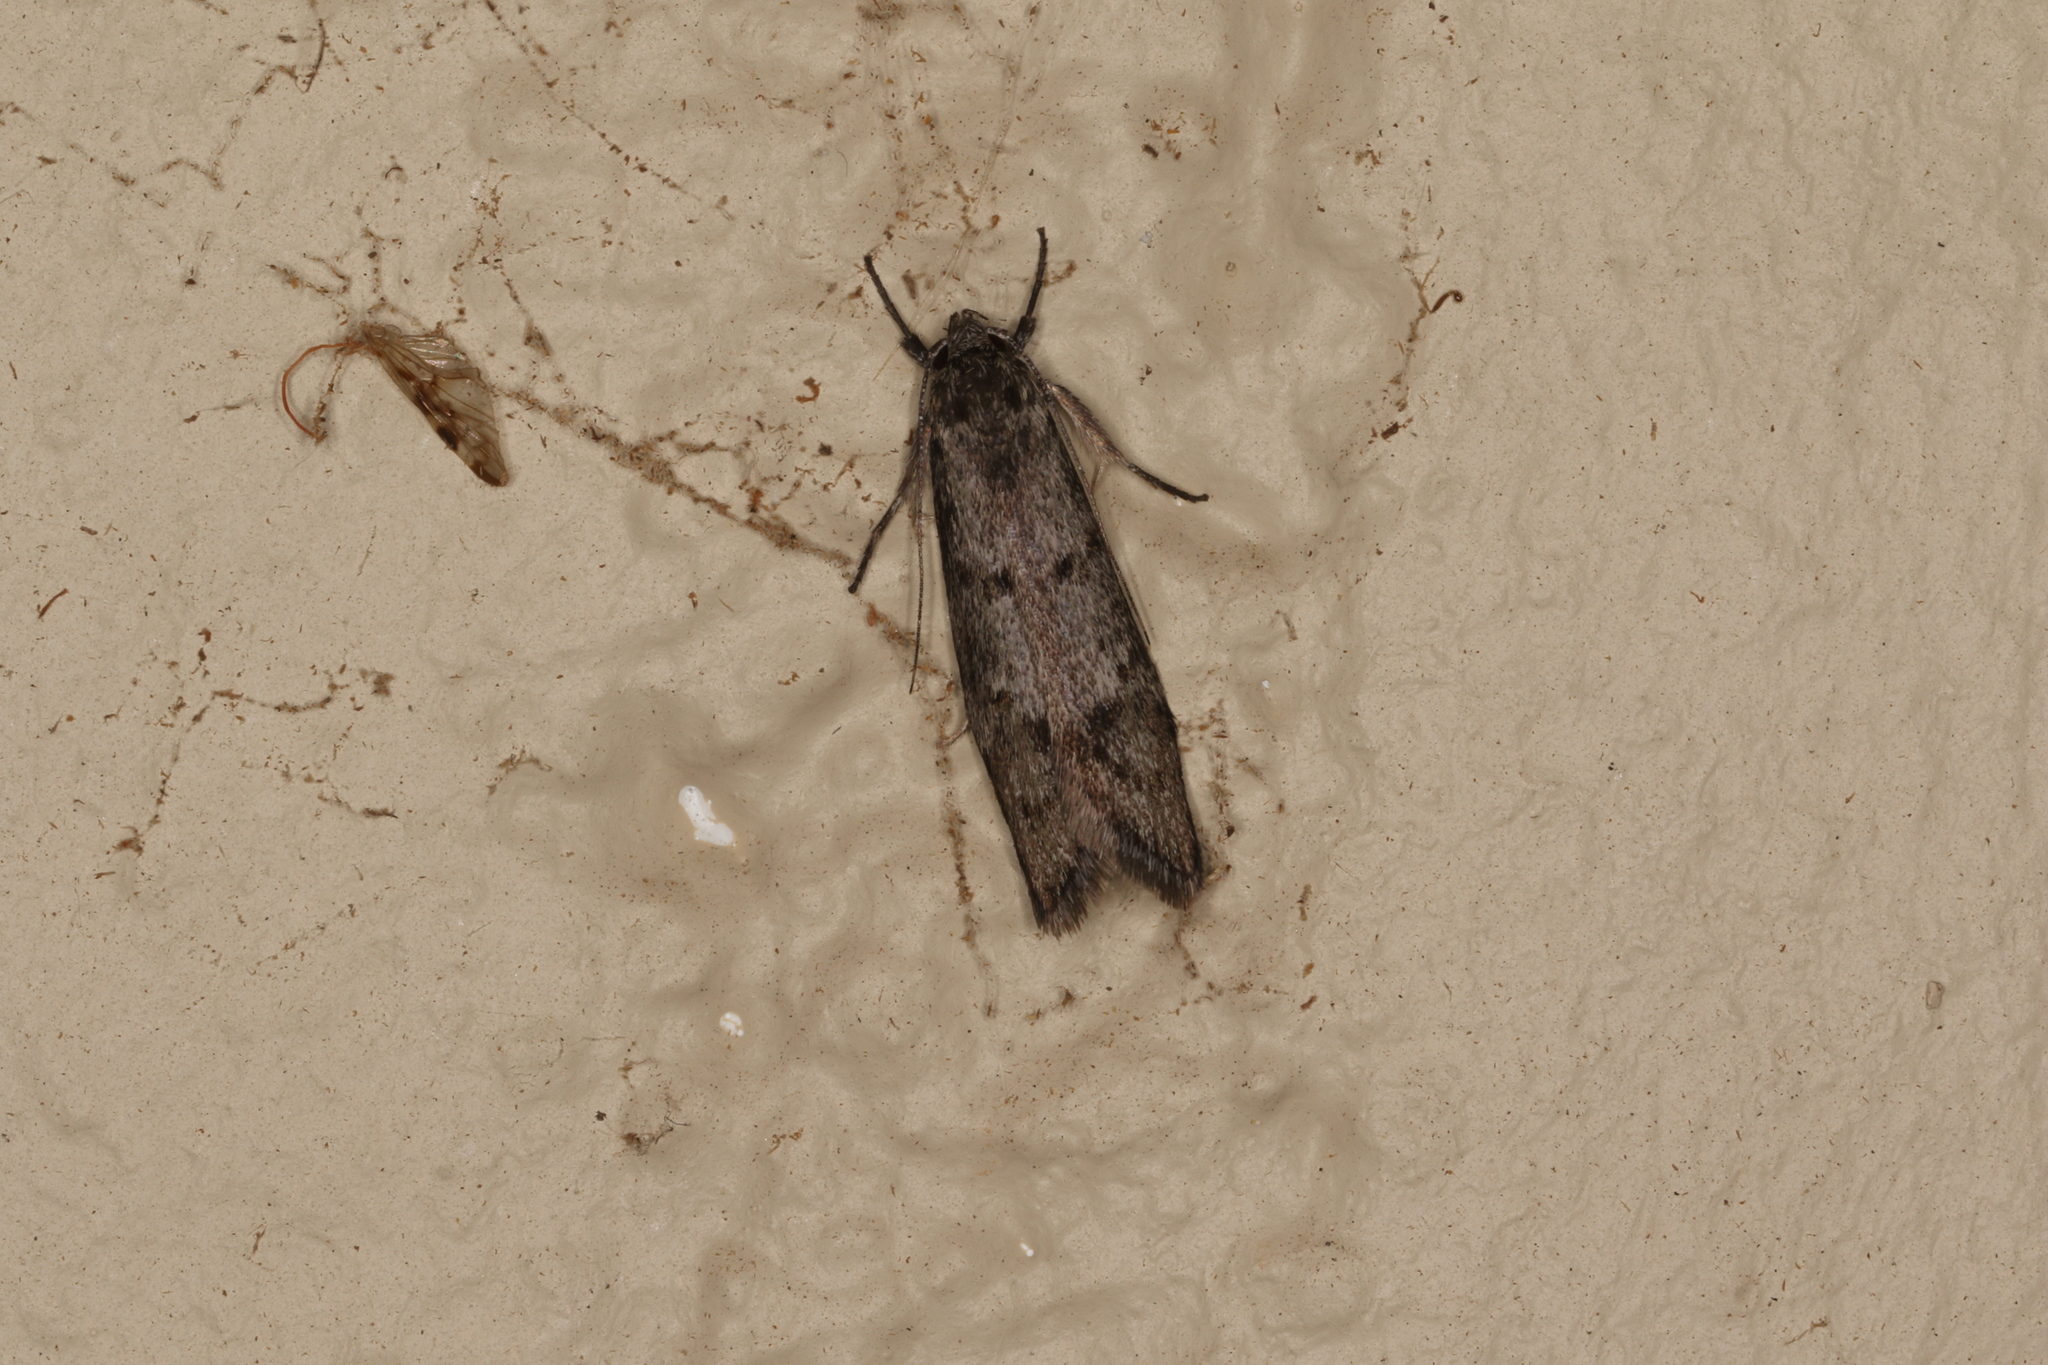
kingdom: Animalia
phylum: Arthropoda
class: Insecta
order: Lepidoptera
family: Oecophoridae
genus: Heterozyga
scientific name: Heterozyga coppatias
